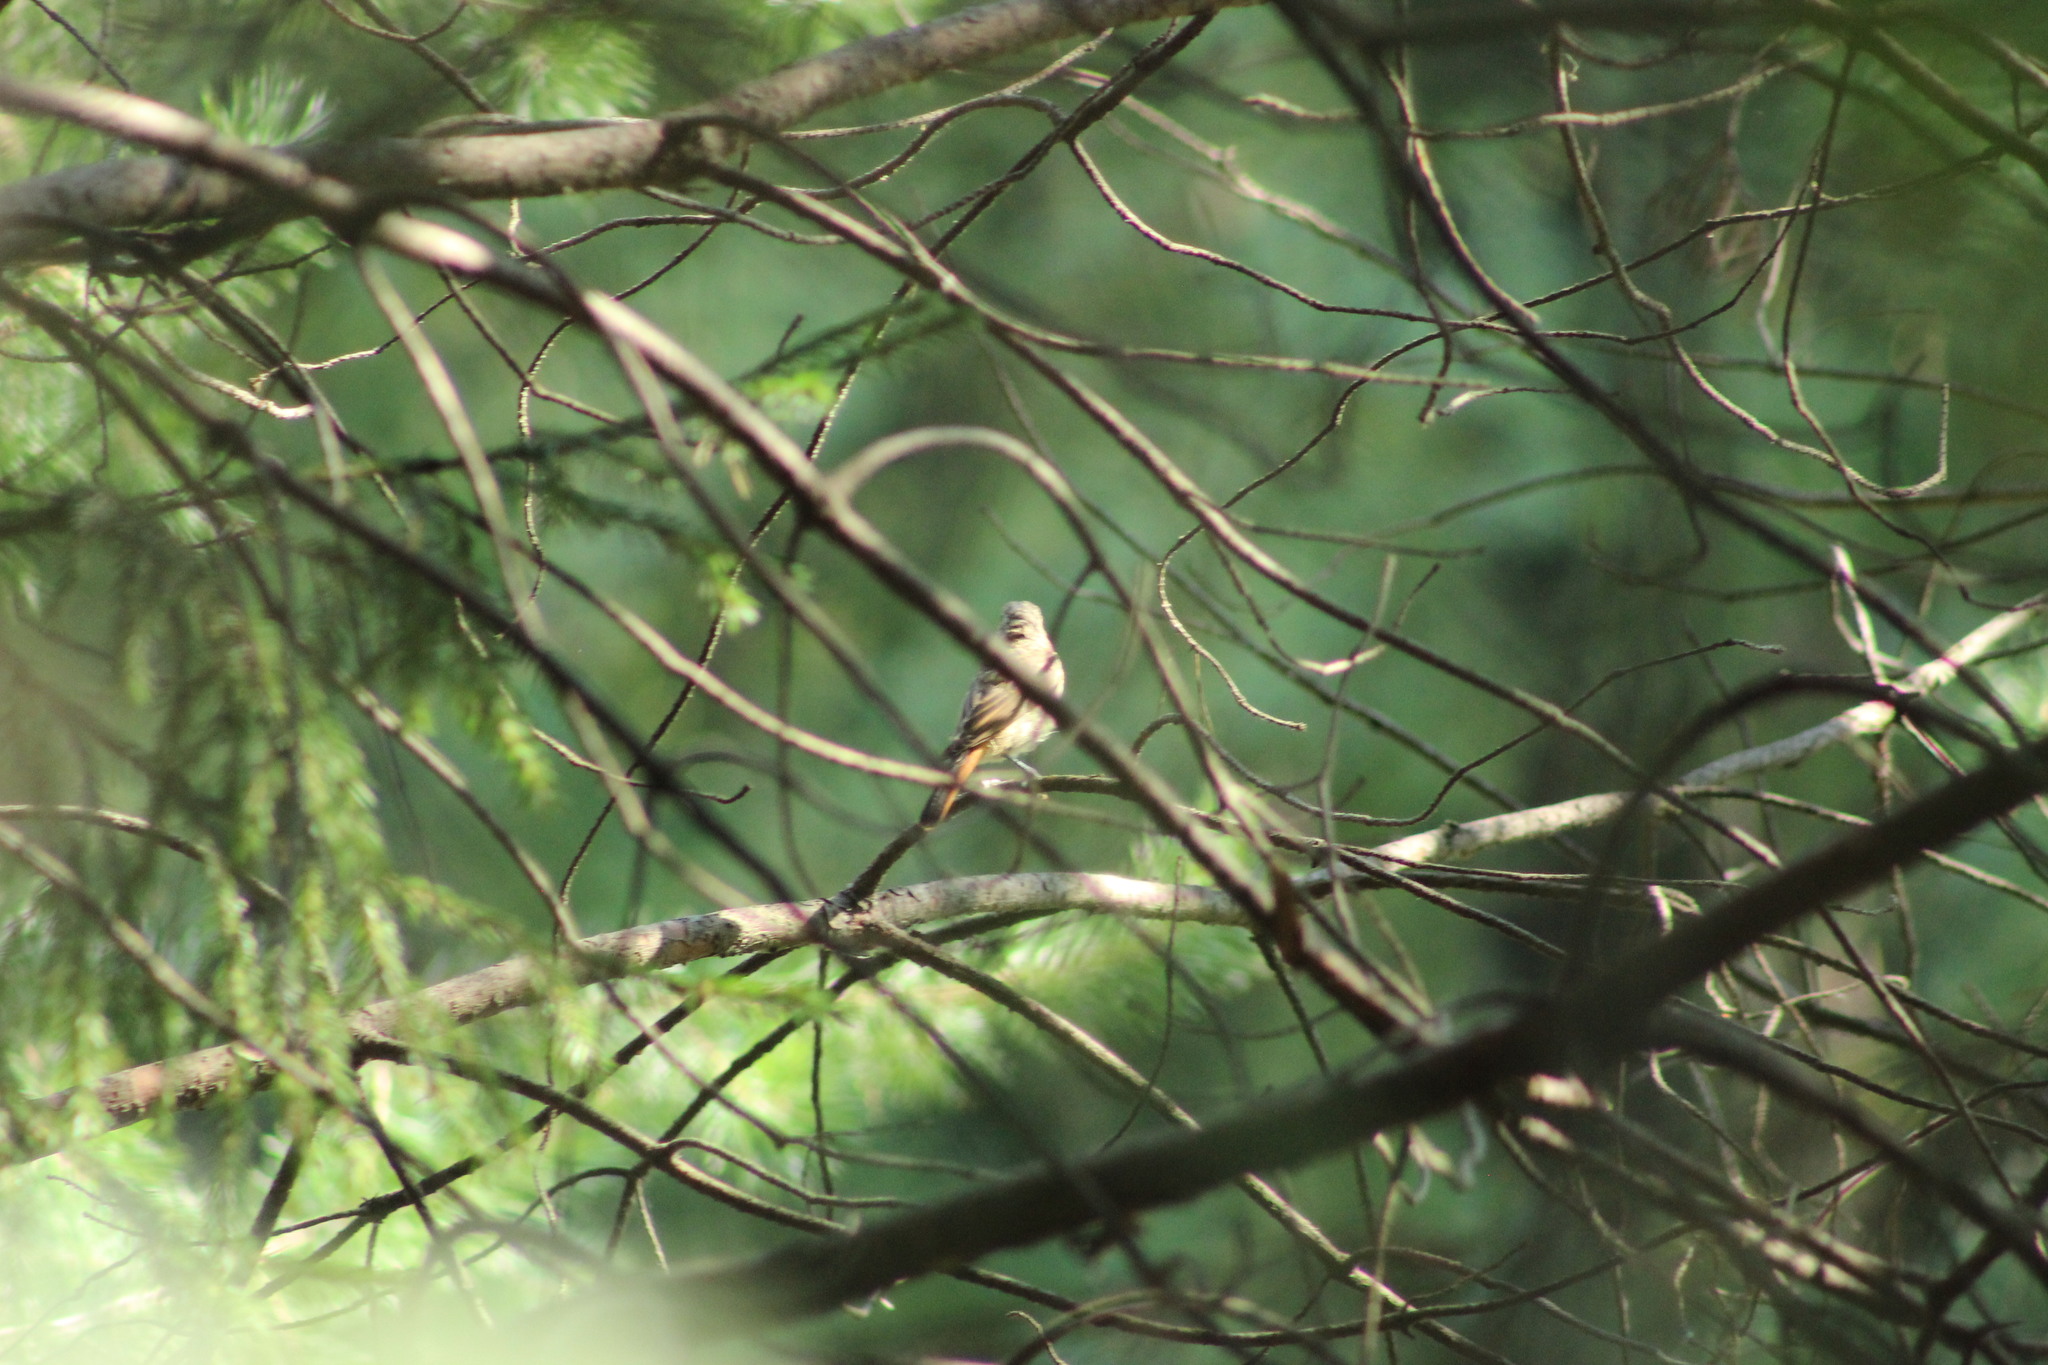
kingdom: Animalia
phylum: Chordata
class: Aves
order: Passeriformes
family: Muscicapidae
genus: Phoenicurus
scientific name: Phoenicurus phoenicurus
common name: Common redstart
